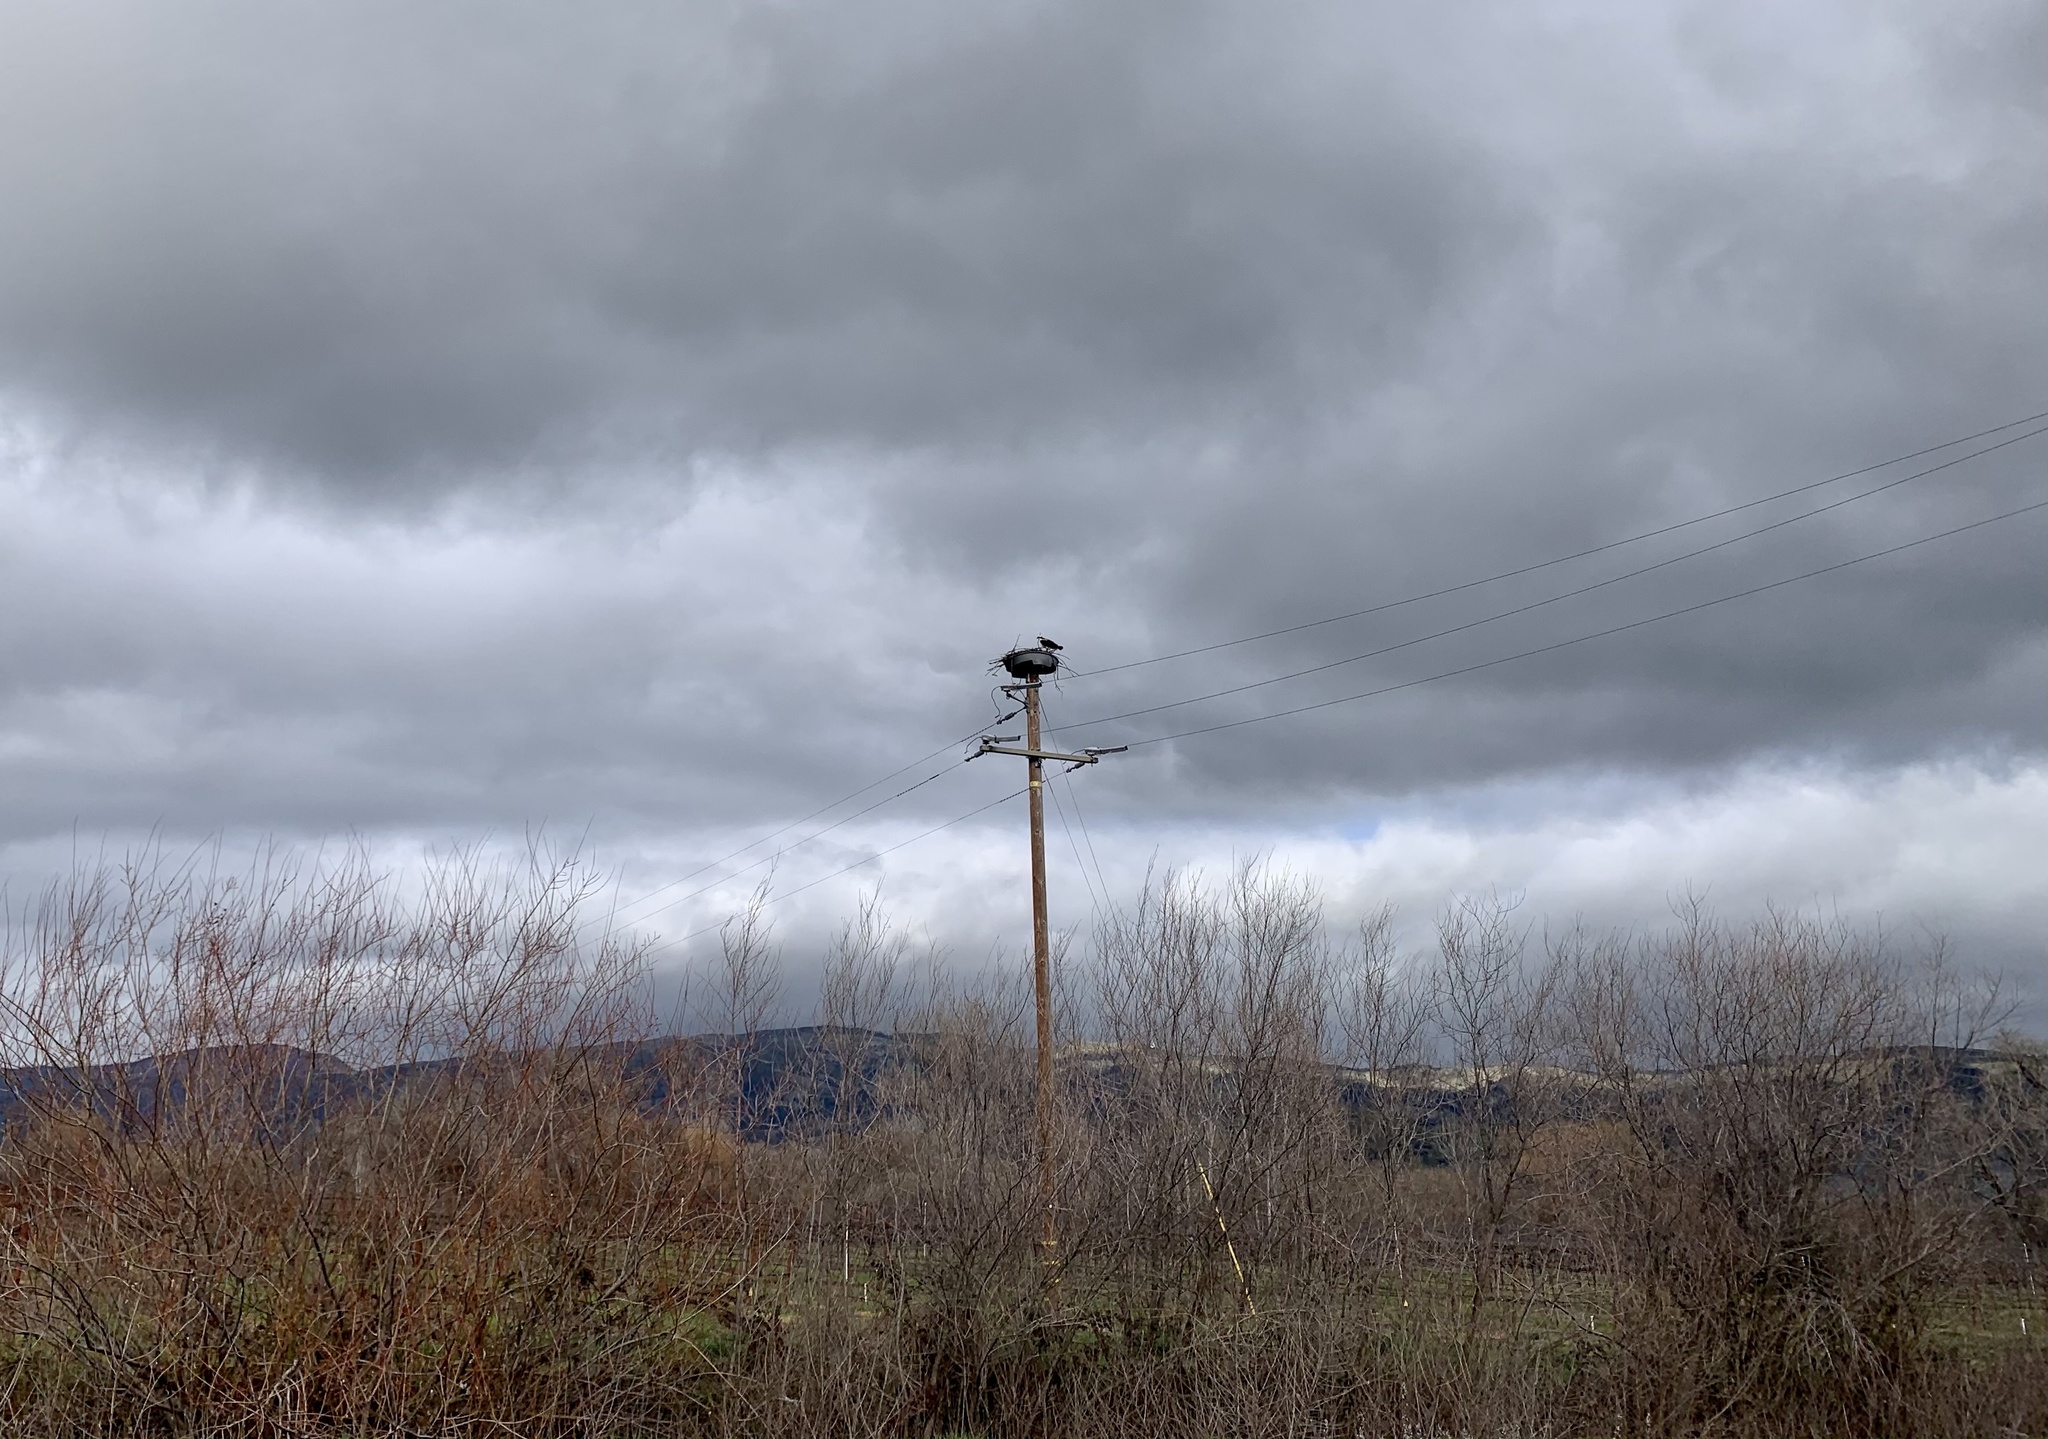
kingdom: Animalia
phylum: Chordata
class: Aves
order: Accipitriformes
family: Pandionidae
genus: Pandion
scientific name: Pandion haliaetus
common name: Osprey
